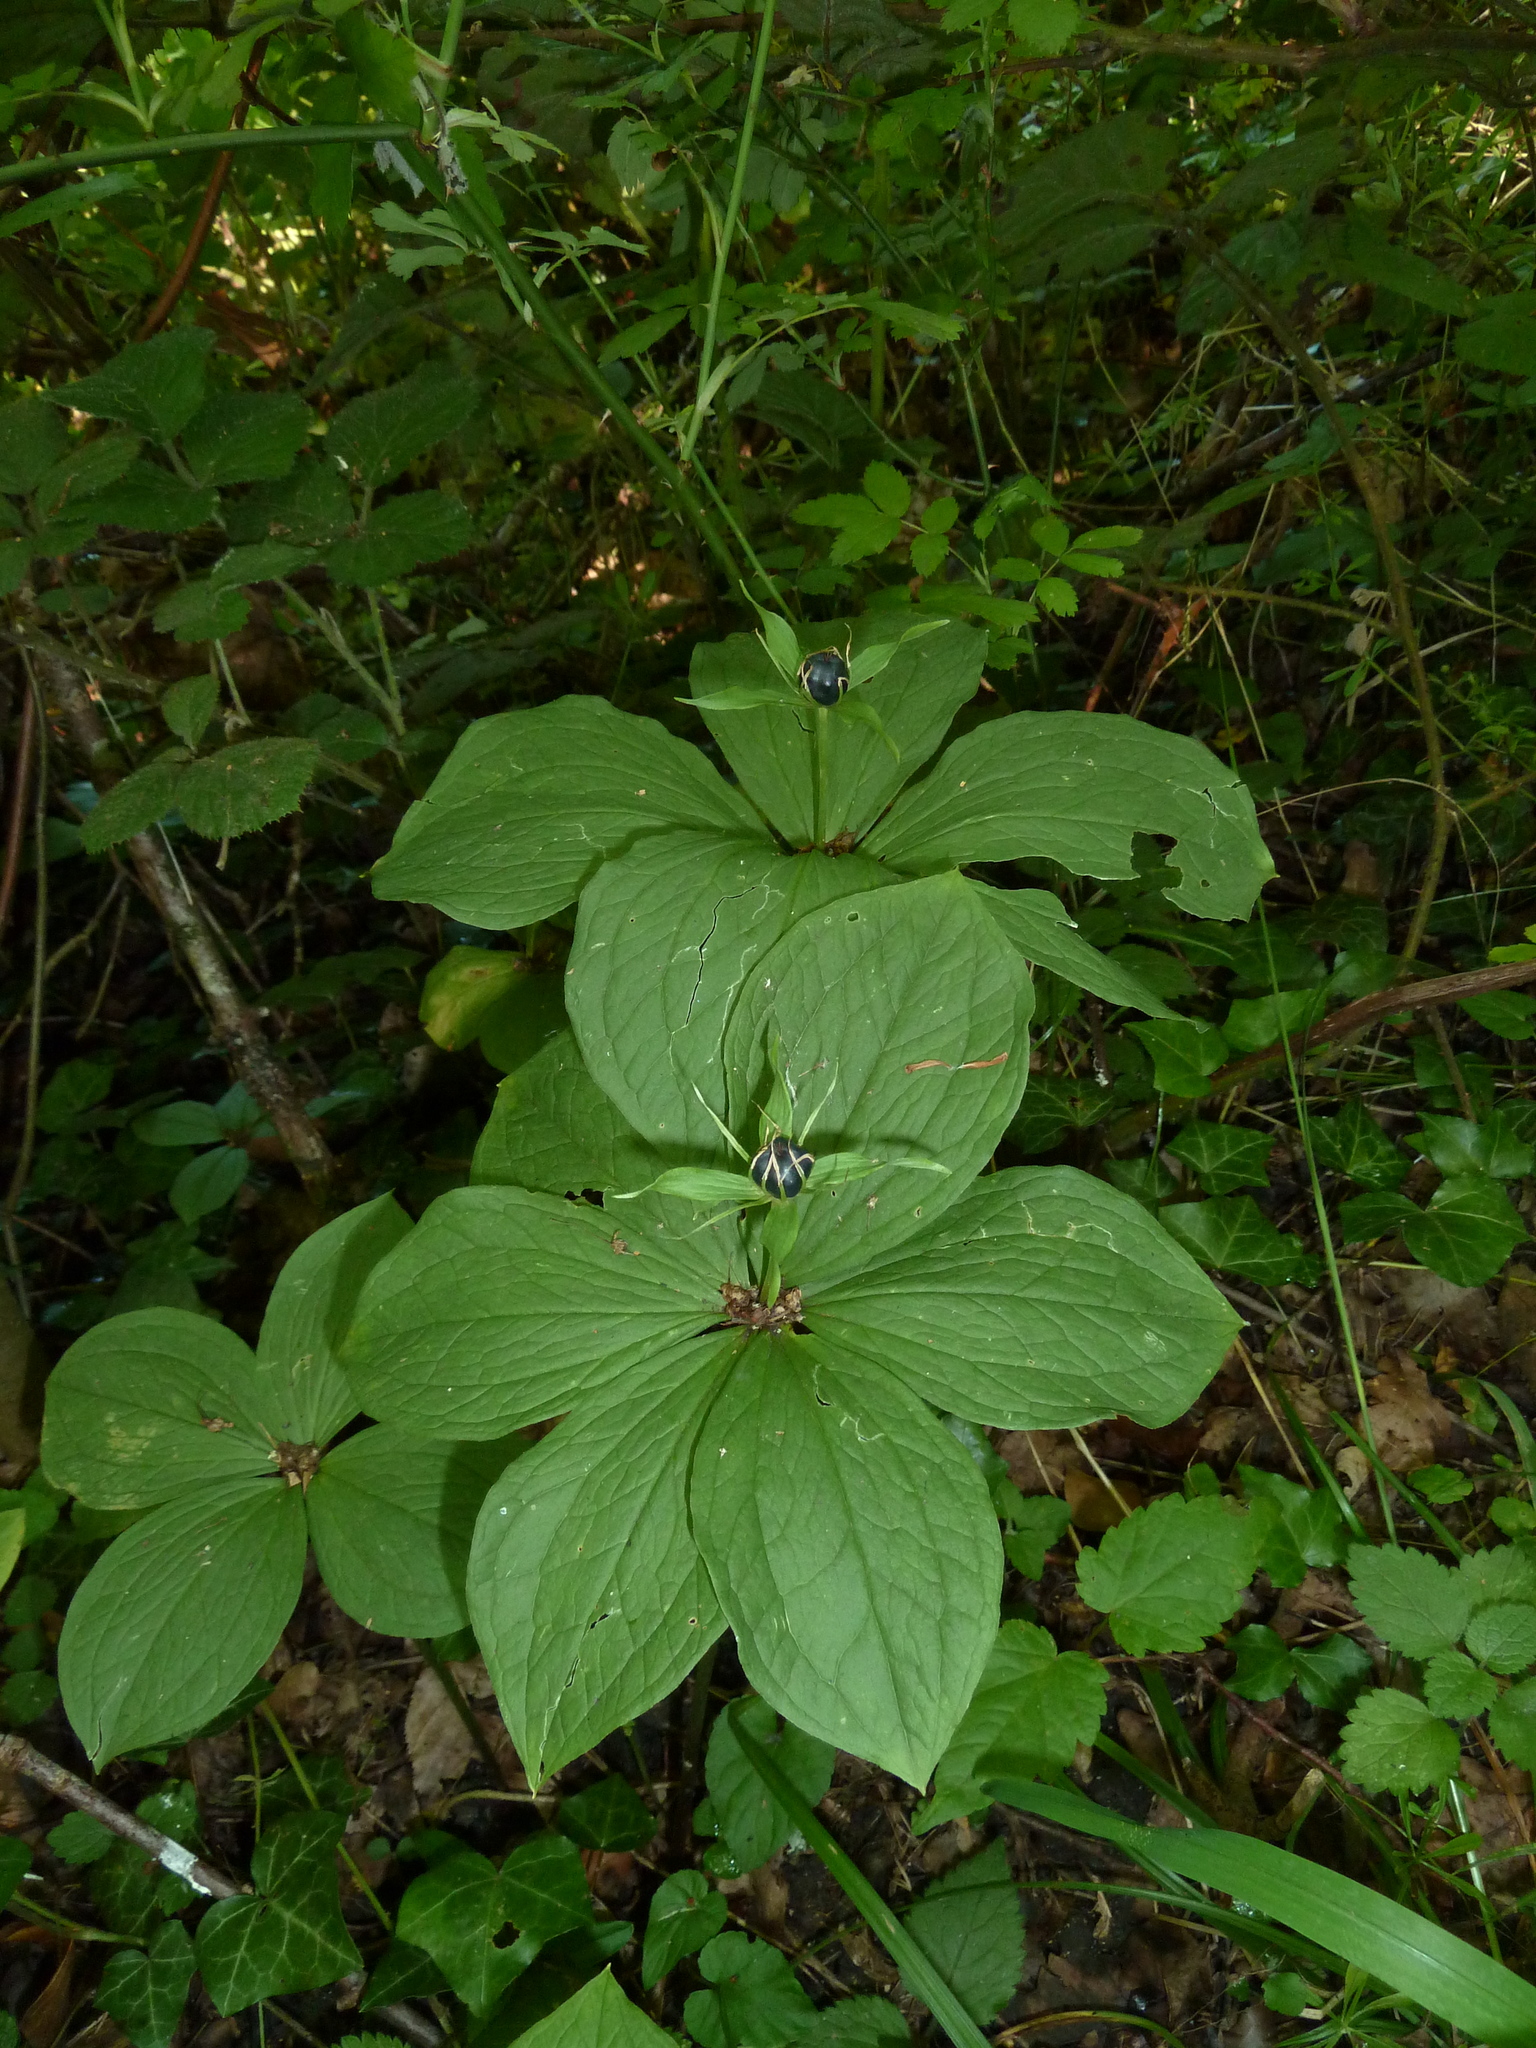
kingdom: Plantae
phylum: Tracheophyta
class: Liliopsida
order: Liliales
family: Melanthiaceae
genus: Paris
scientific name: Paris quadrifolia
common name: Herb-paris
